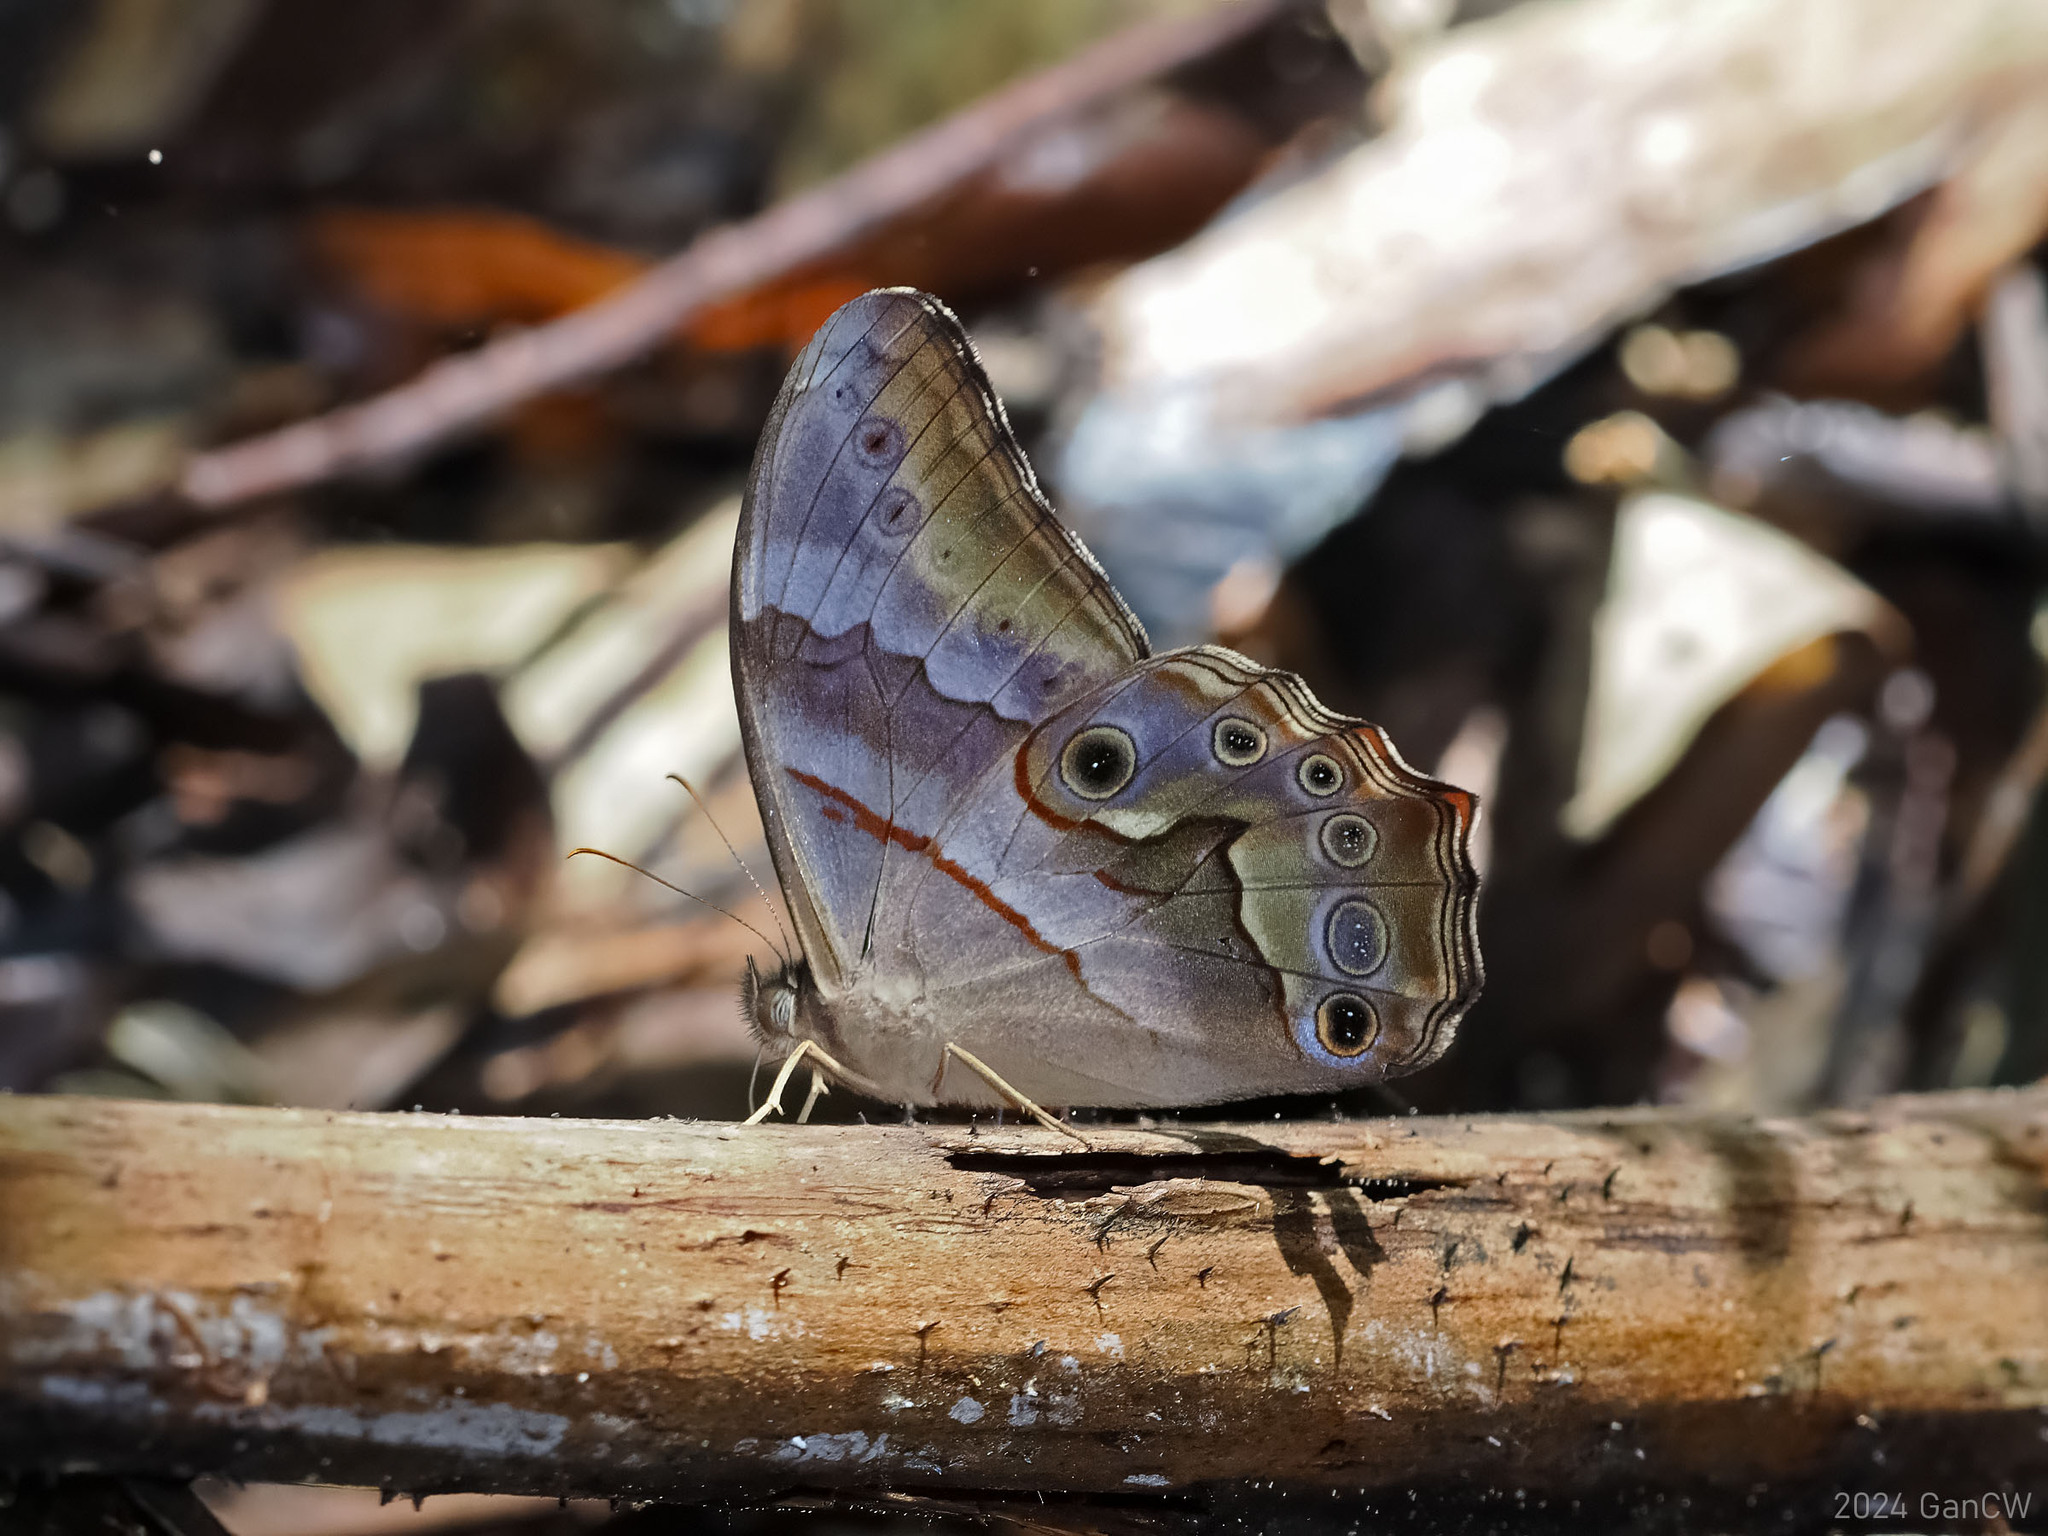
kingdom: Animalia
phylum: Arthropoda
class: Insecta
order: Lepidoptera
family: Nymphalidae
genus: Lethe
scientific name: Lethe chandica
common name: Angled red forester
